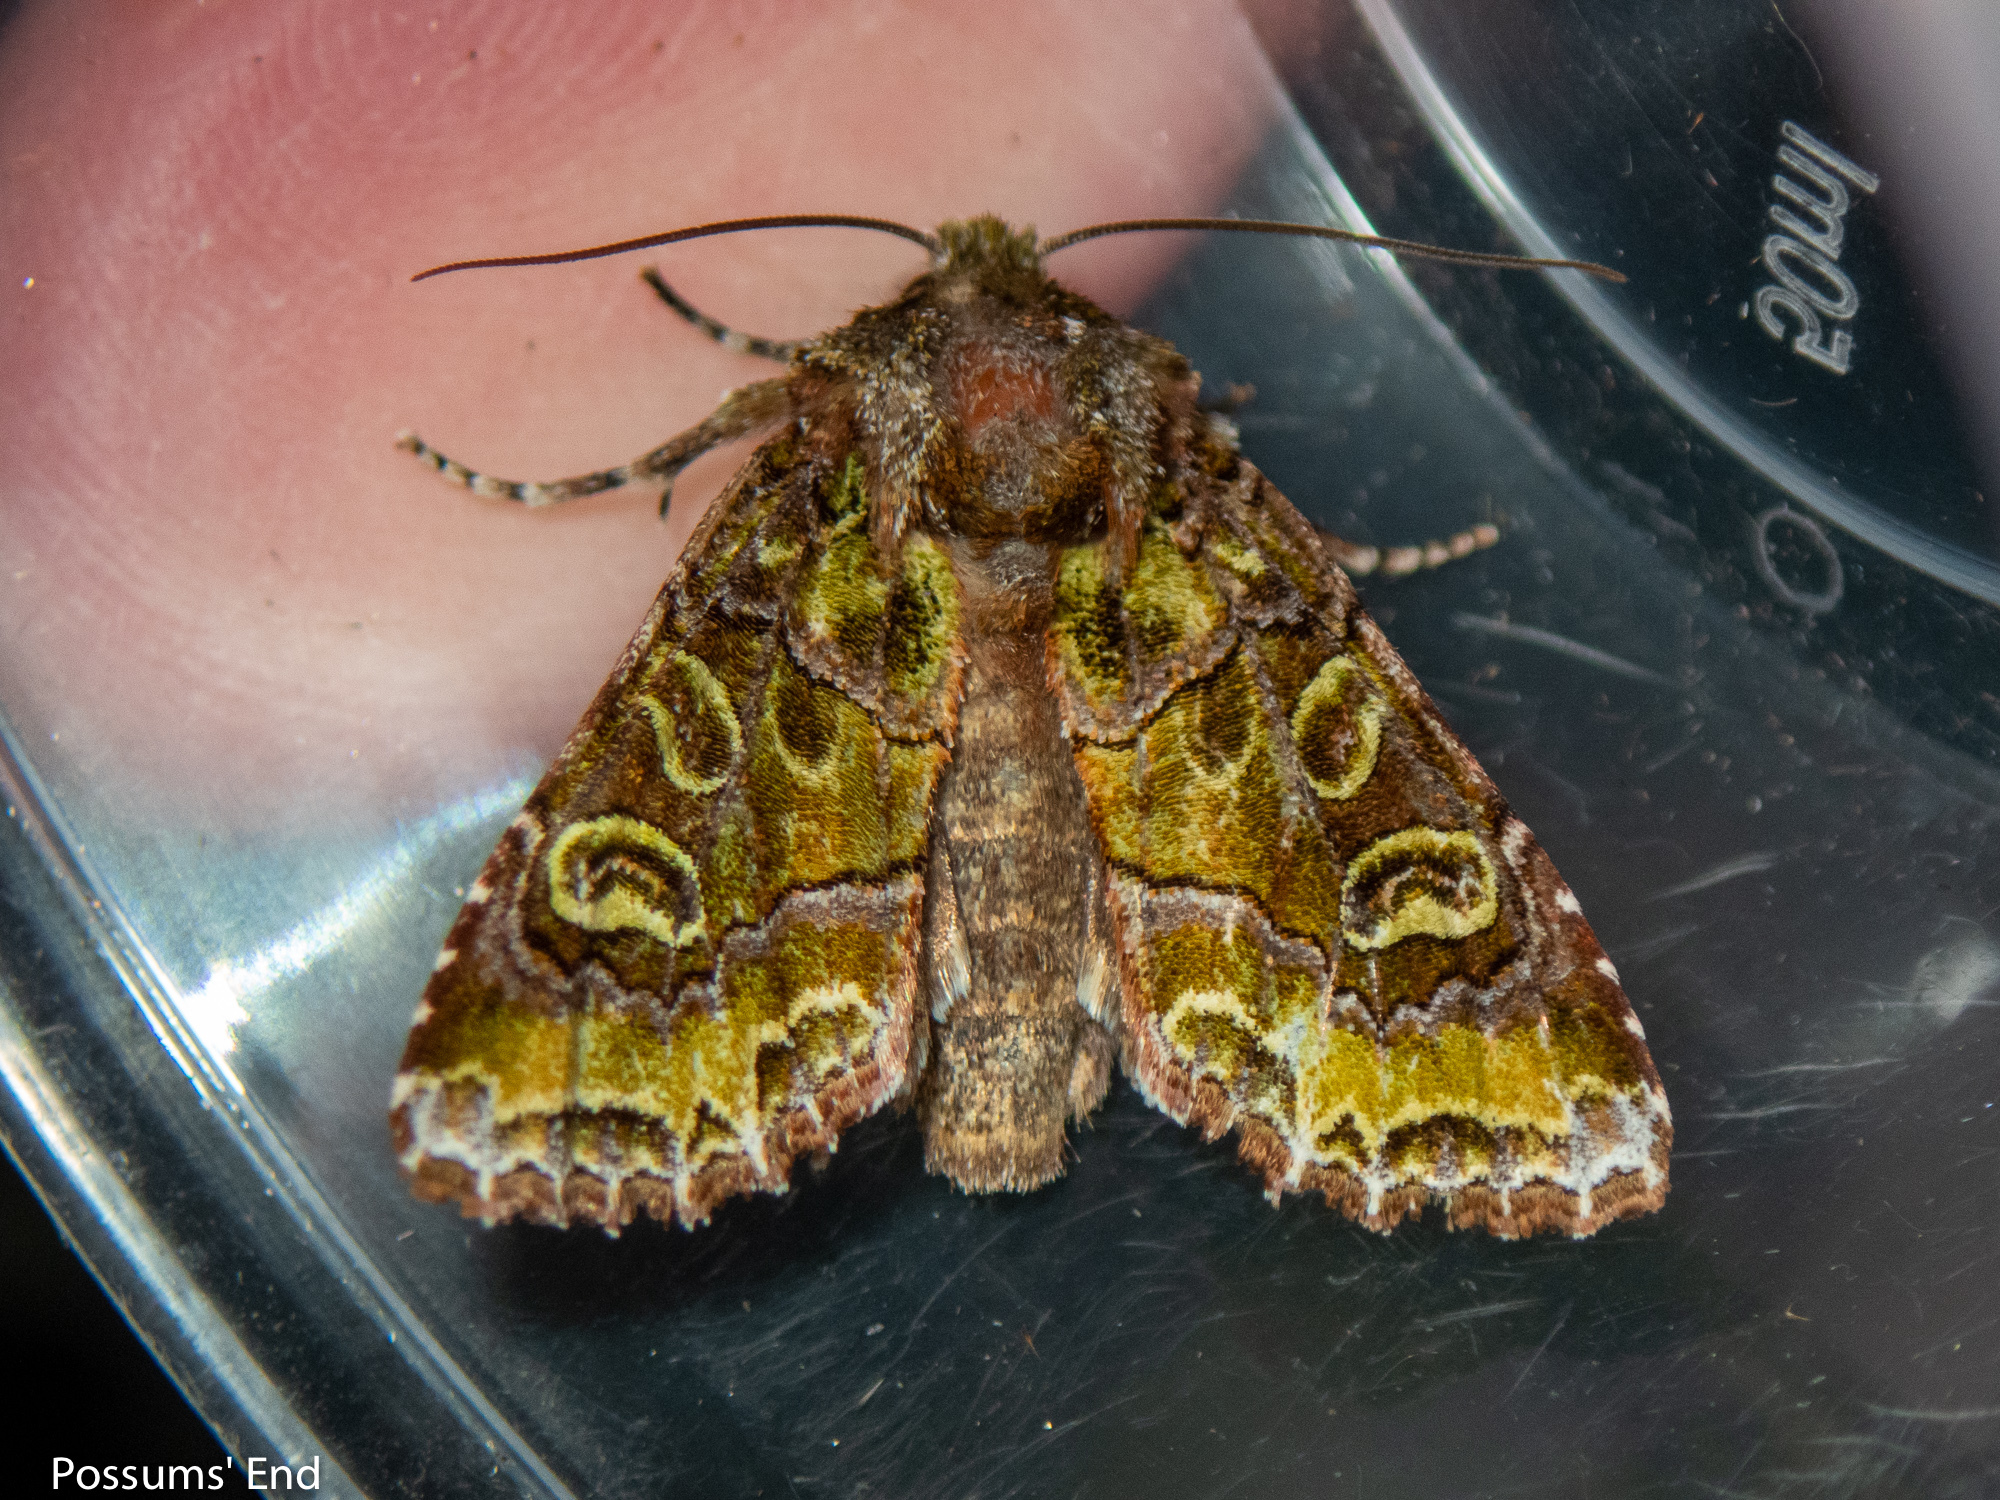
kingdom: Animalia
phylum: Arthropoda
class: Insecta
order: Lepidoptera
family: Noctuidae
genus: Ichneutica
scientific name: Ichneutica chlorodonta
